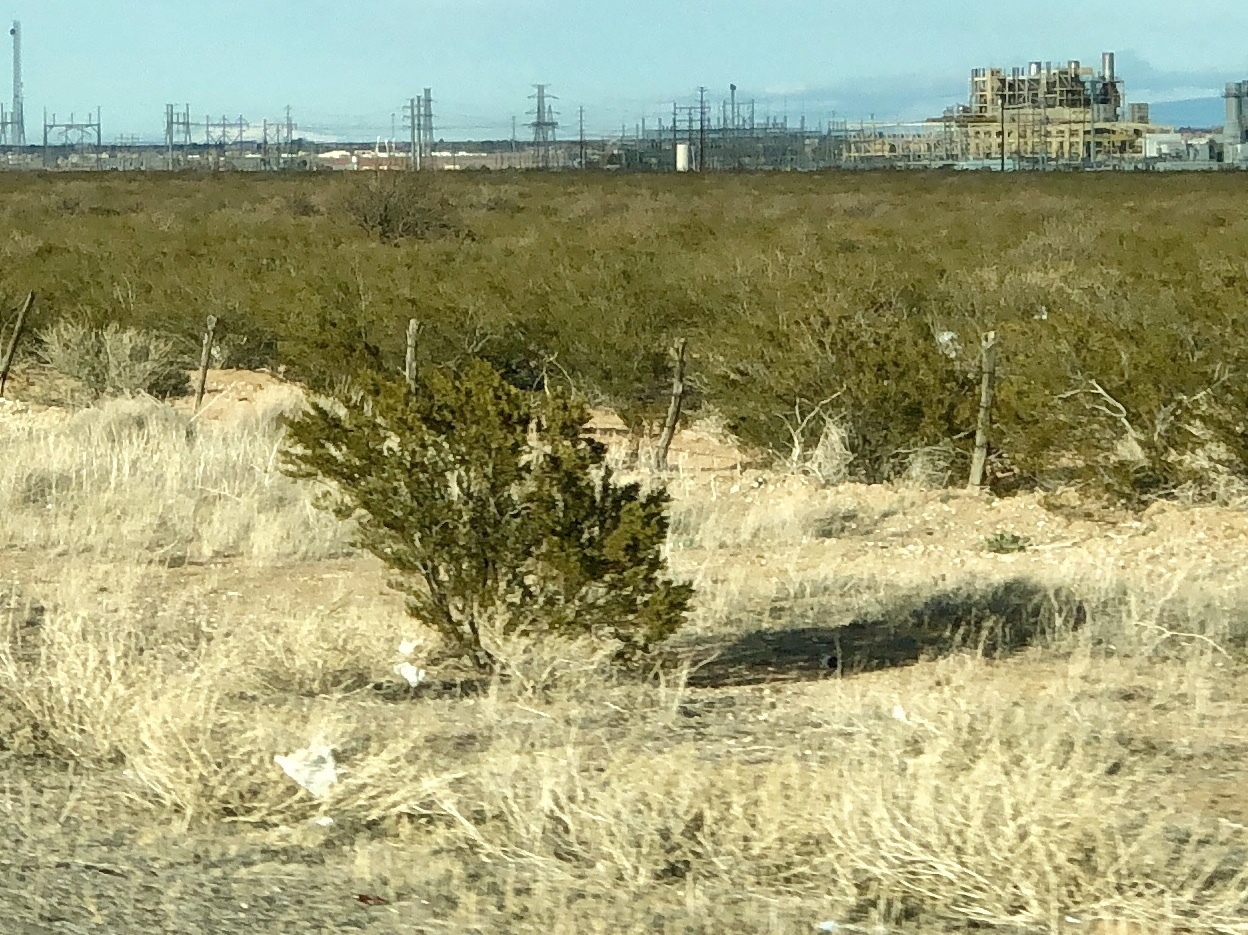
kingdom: Plantae
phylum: Tracheophyta
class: Magnoliopsida
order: Zygophyllales
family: Zygophyllaceae
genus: Larrea
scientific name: Larrea tridentata
